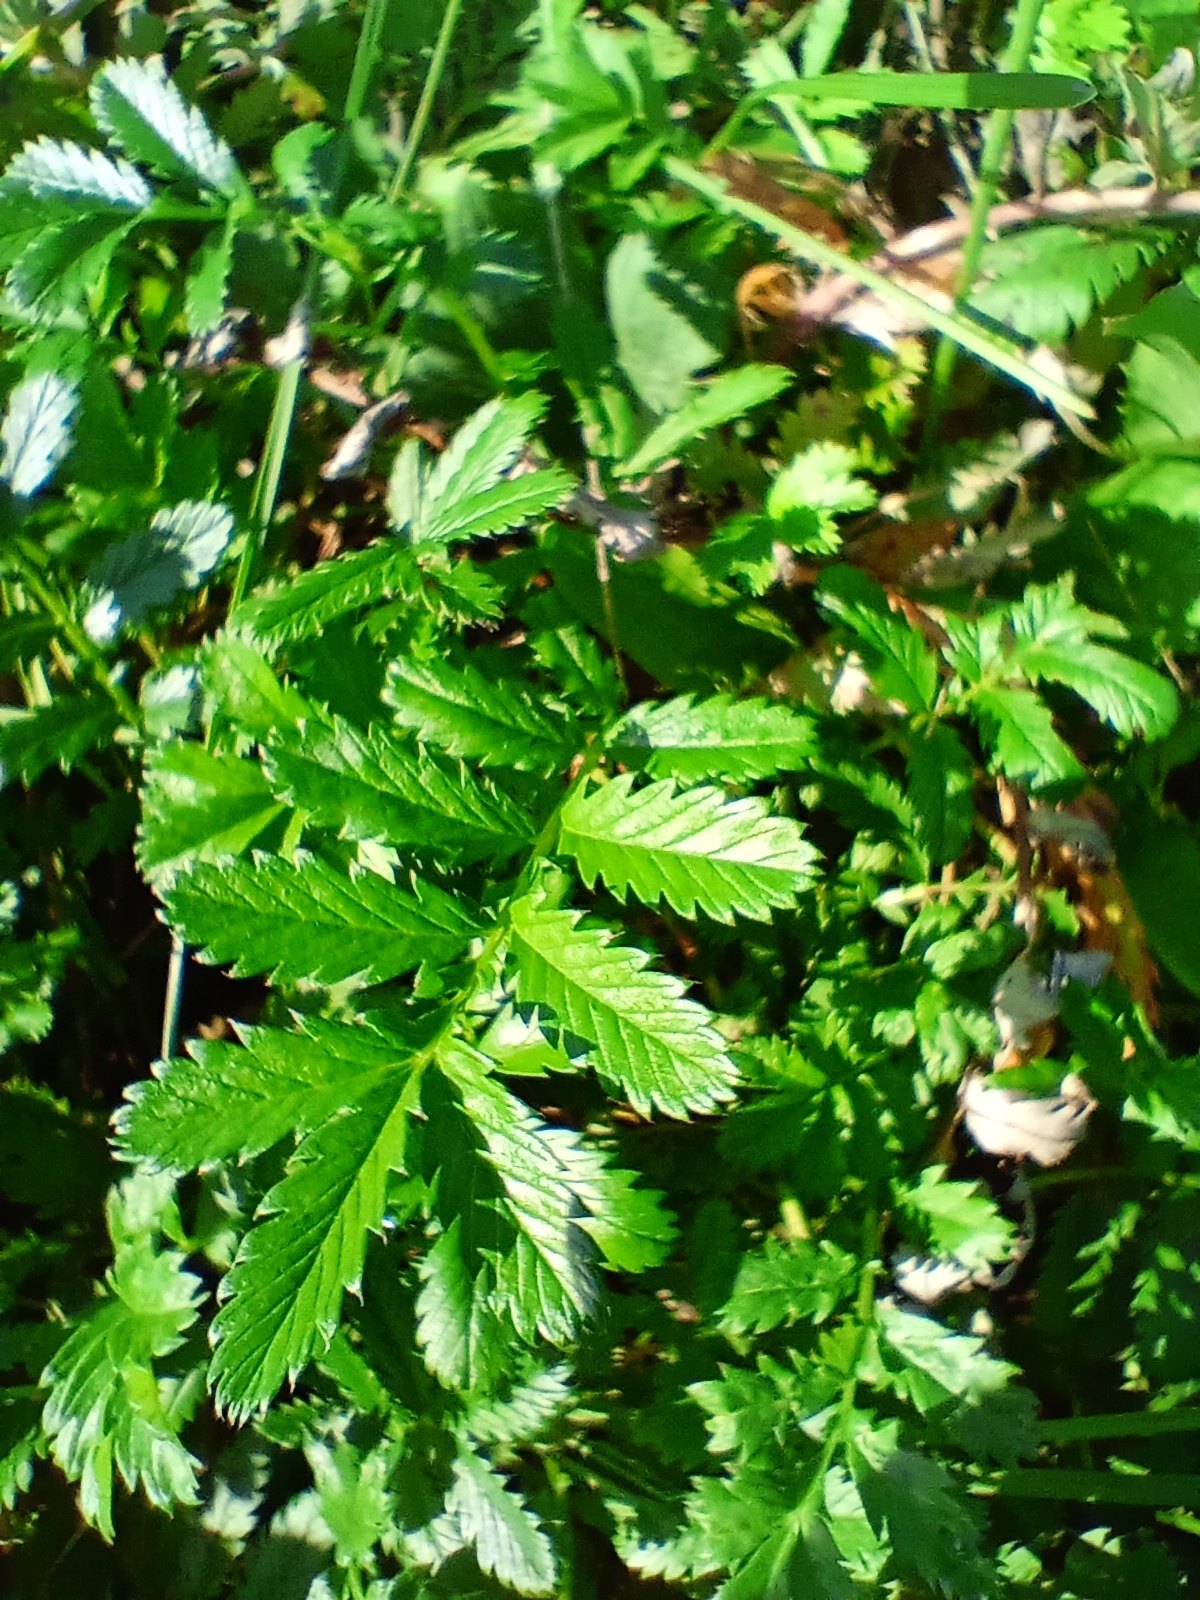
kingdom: Plantae
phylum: Tracheophyta
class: Magnoliopsida
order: Rosales
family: Rosaceae
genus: Argentina
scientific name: Argentina anserina
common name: Common silverweed
